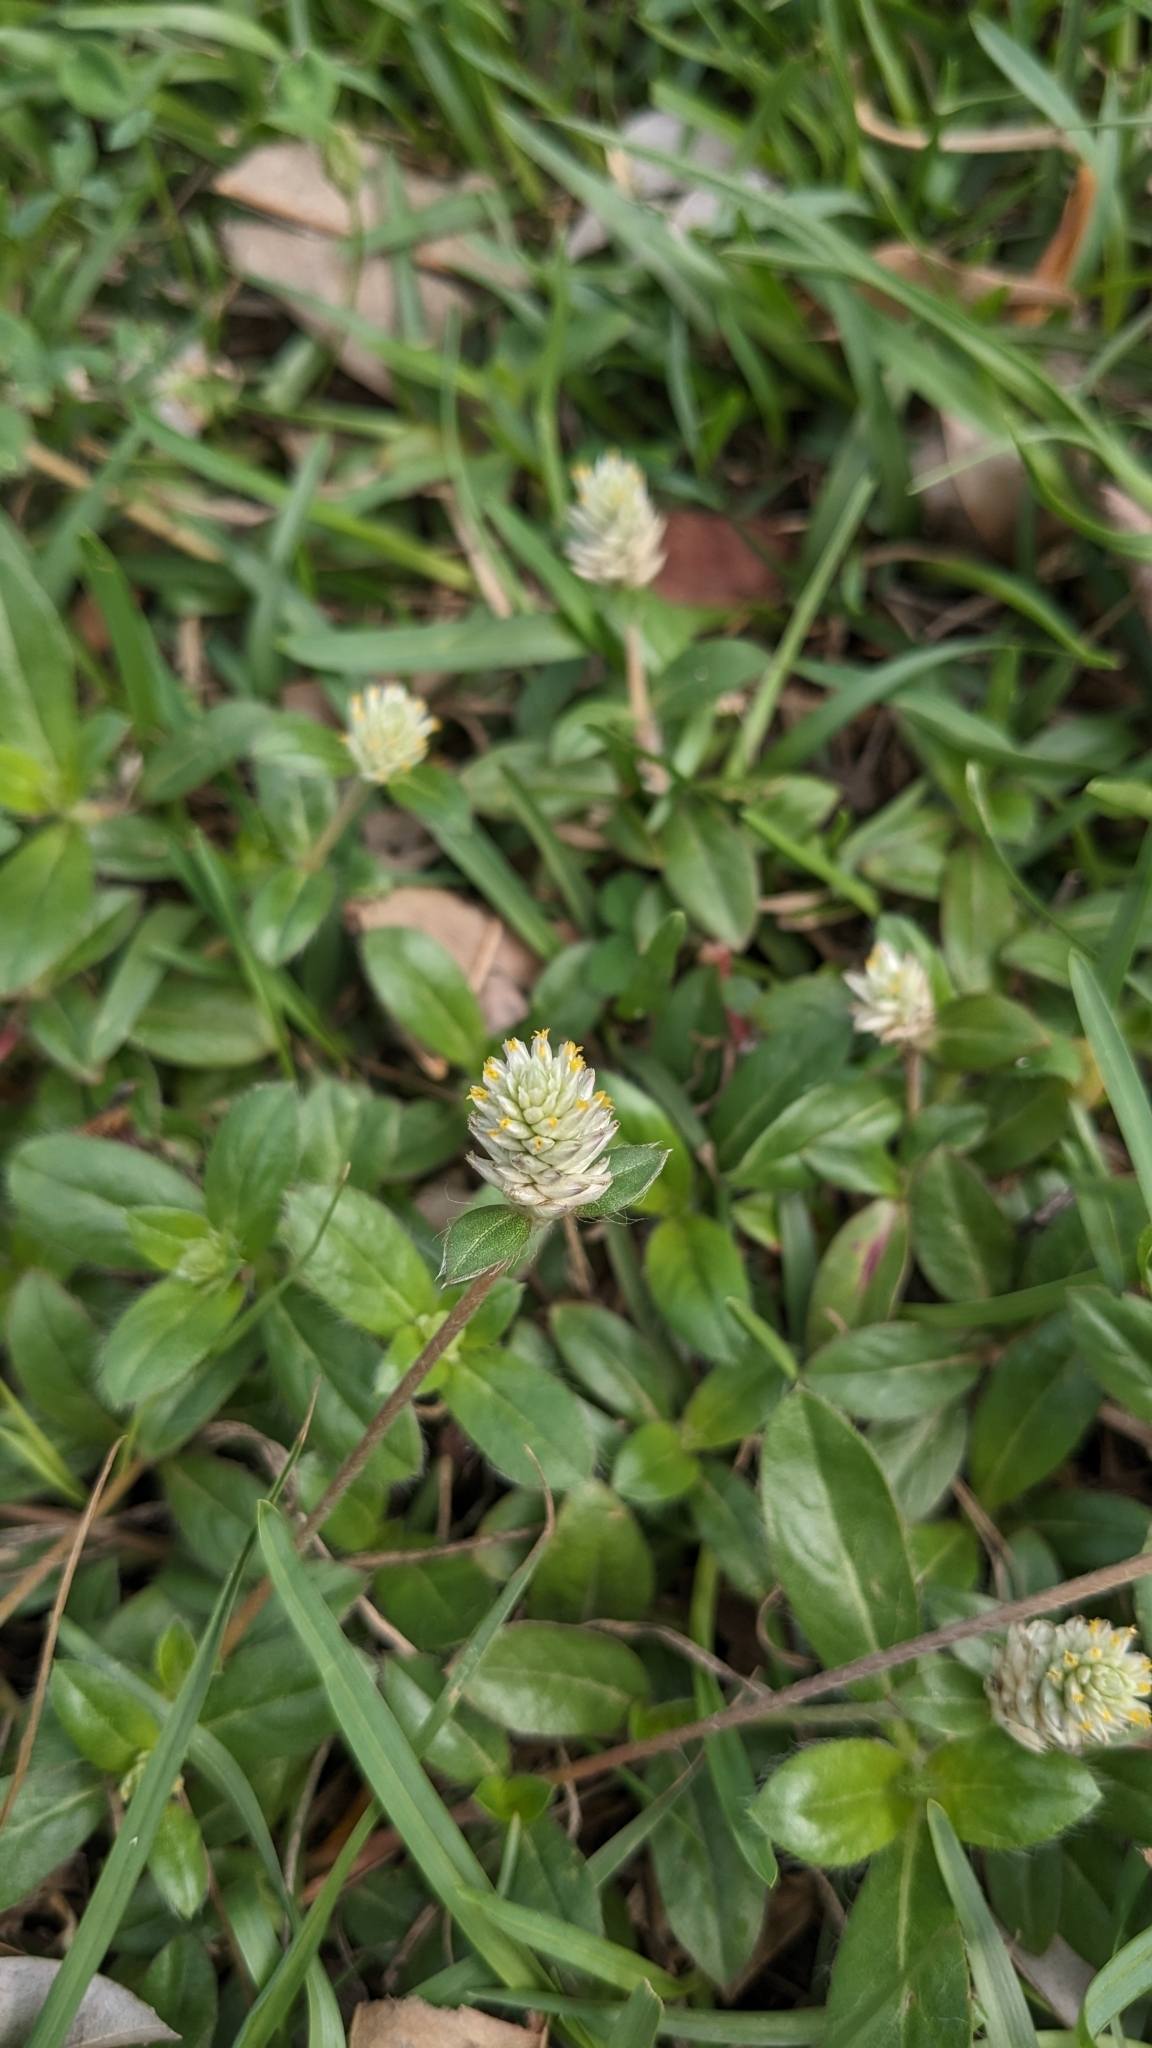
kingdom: Plantae
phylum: Tracheophyta
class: Magnoliopsida
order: Caryophyllales
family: Amaranthaceae
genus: Gomphrena
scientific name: Gomphrena celosioides
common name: Gomphrena-weed
